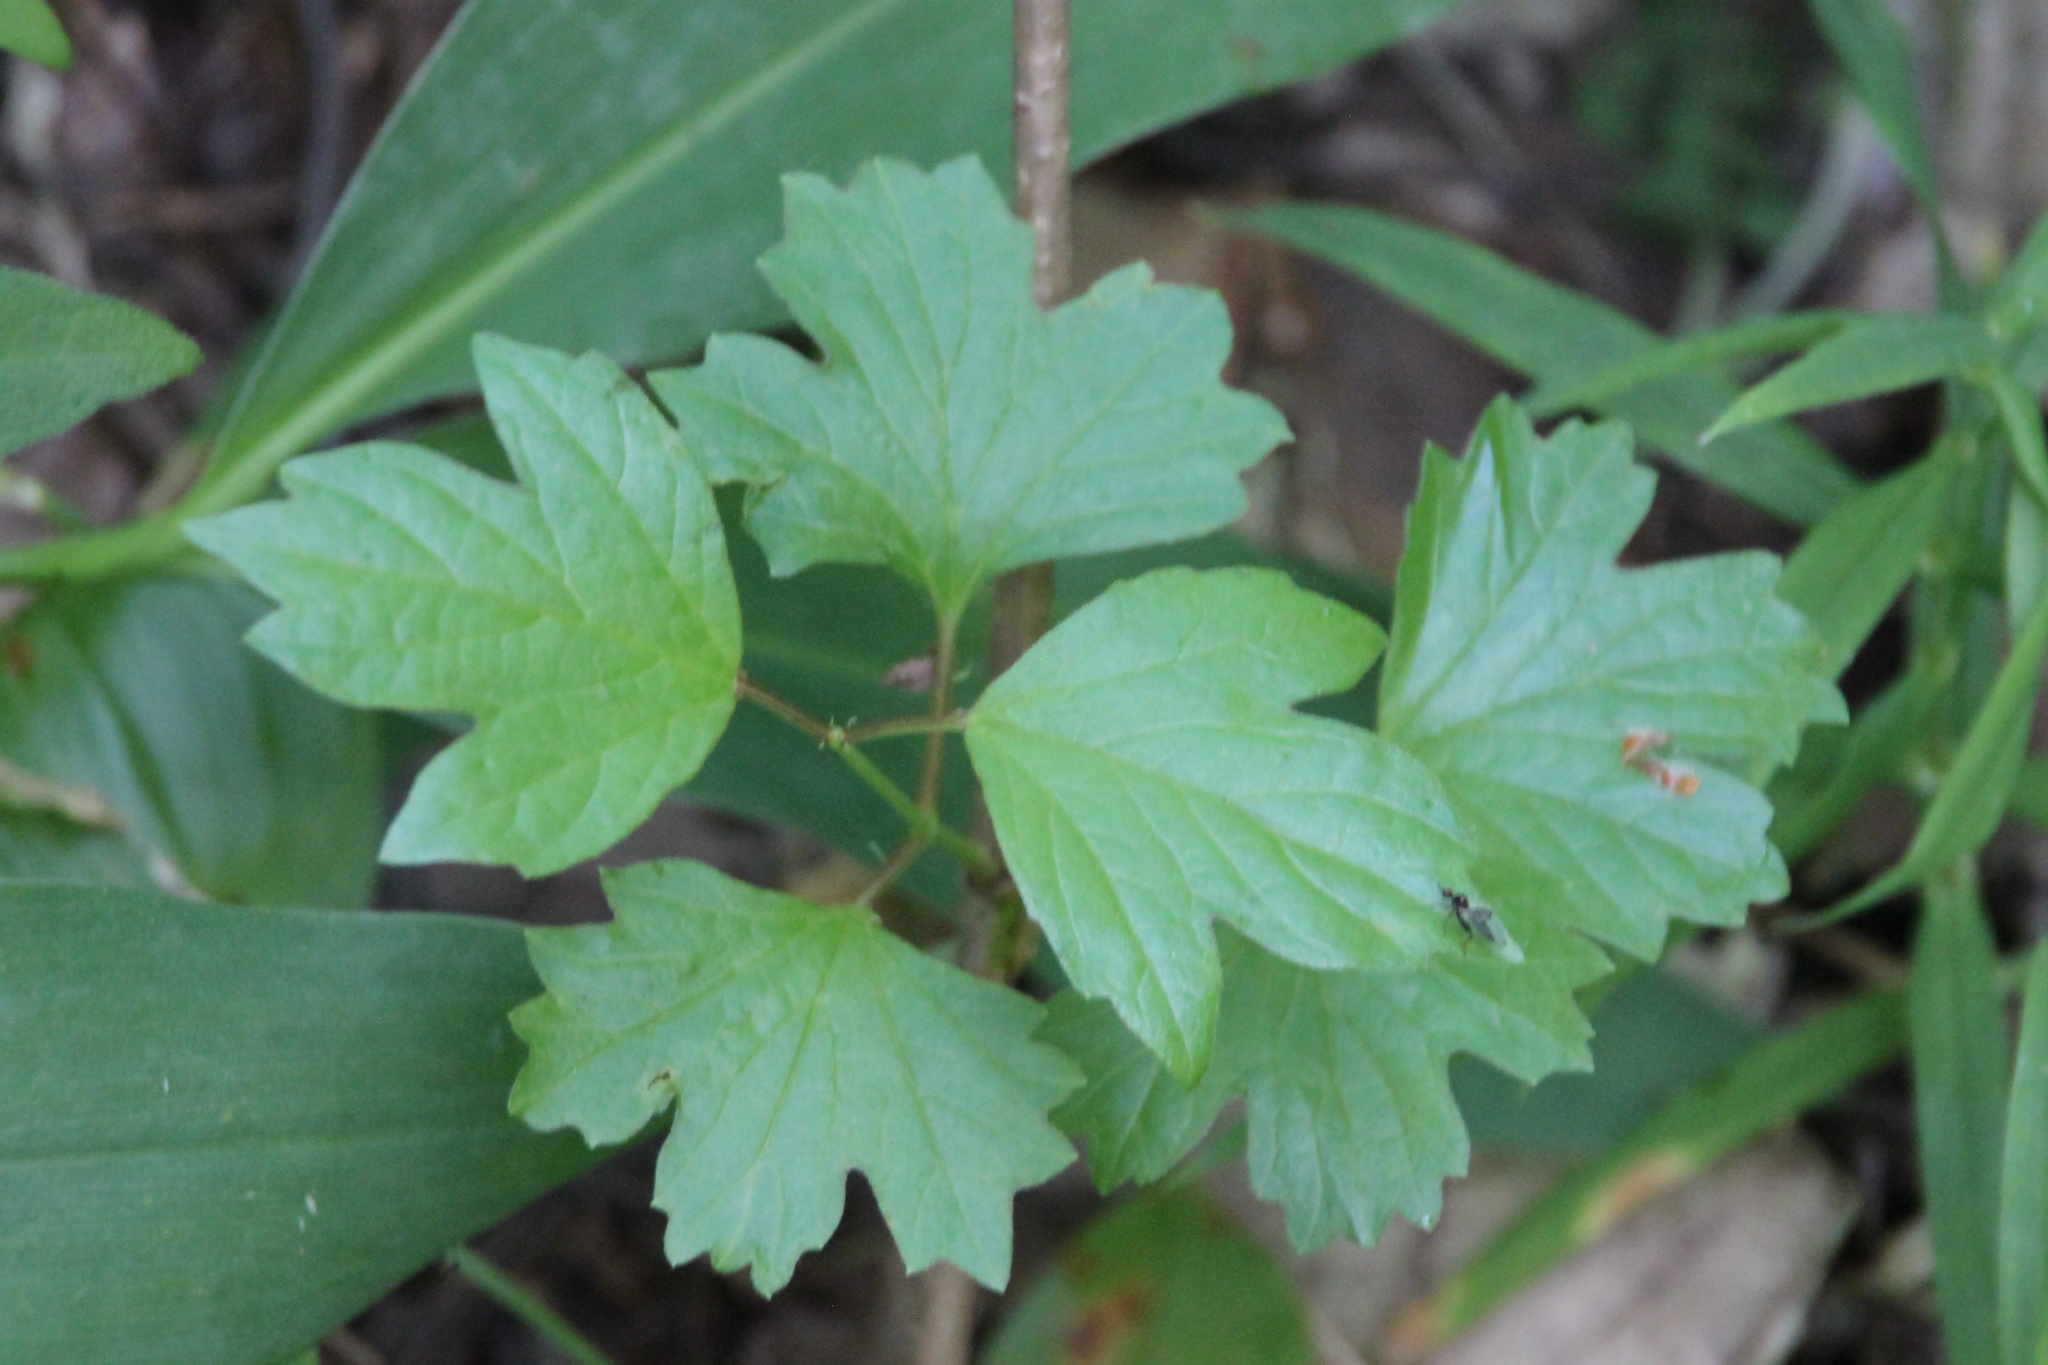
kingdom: Plantae
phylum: Tracheophyta
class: Magnoliopsida
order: Dipsacales
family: Viburnaceae
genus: Viburnum
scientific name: Viburnum opulus
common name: Guelder-rose
